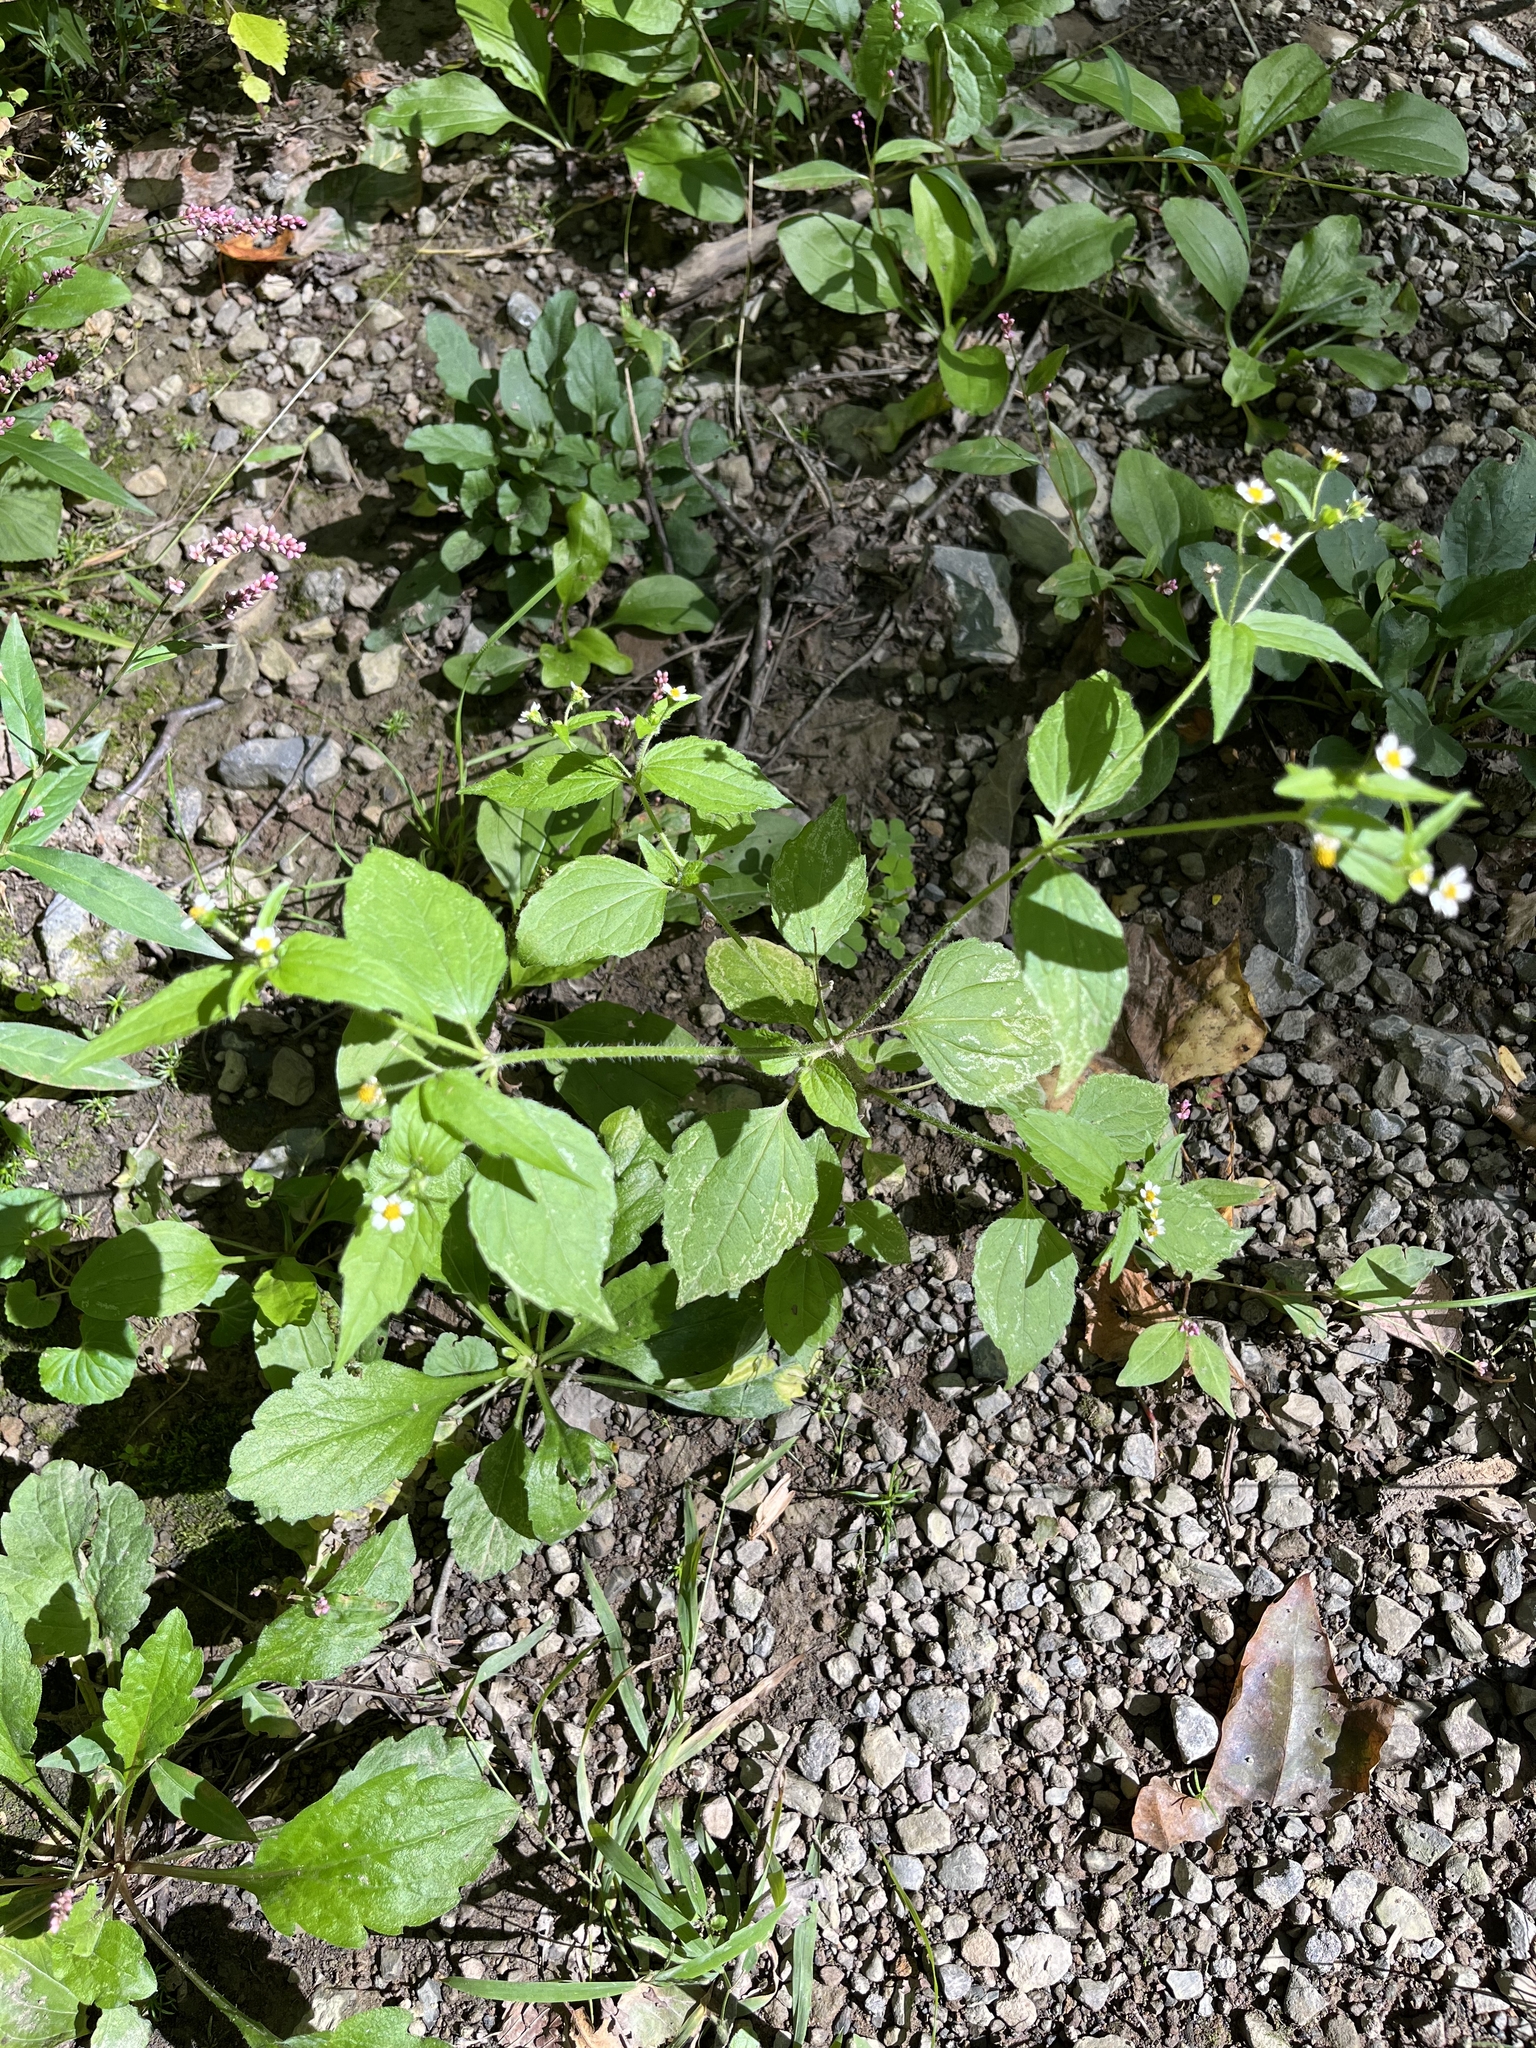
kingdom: Plantae
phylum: Tracheophyta
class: Magnoliopsida
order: Asterales
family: Asteraceae
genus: Galinsoga
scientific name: Galinsoga quadriradiata
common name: Shaggy soldier
